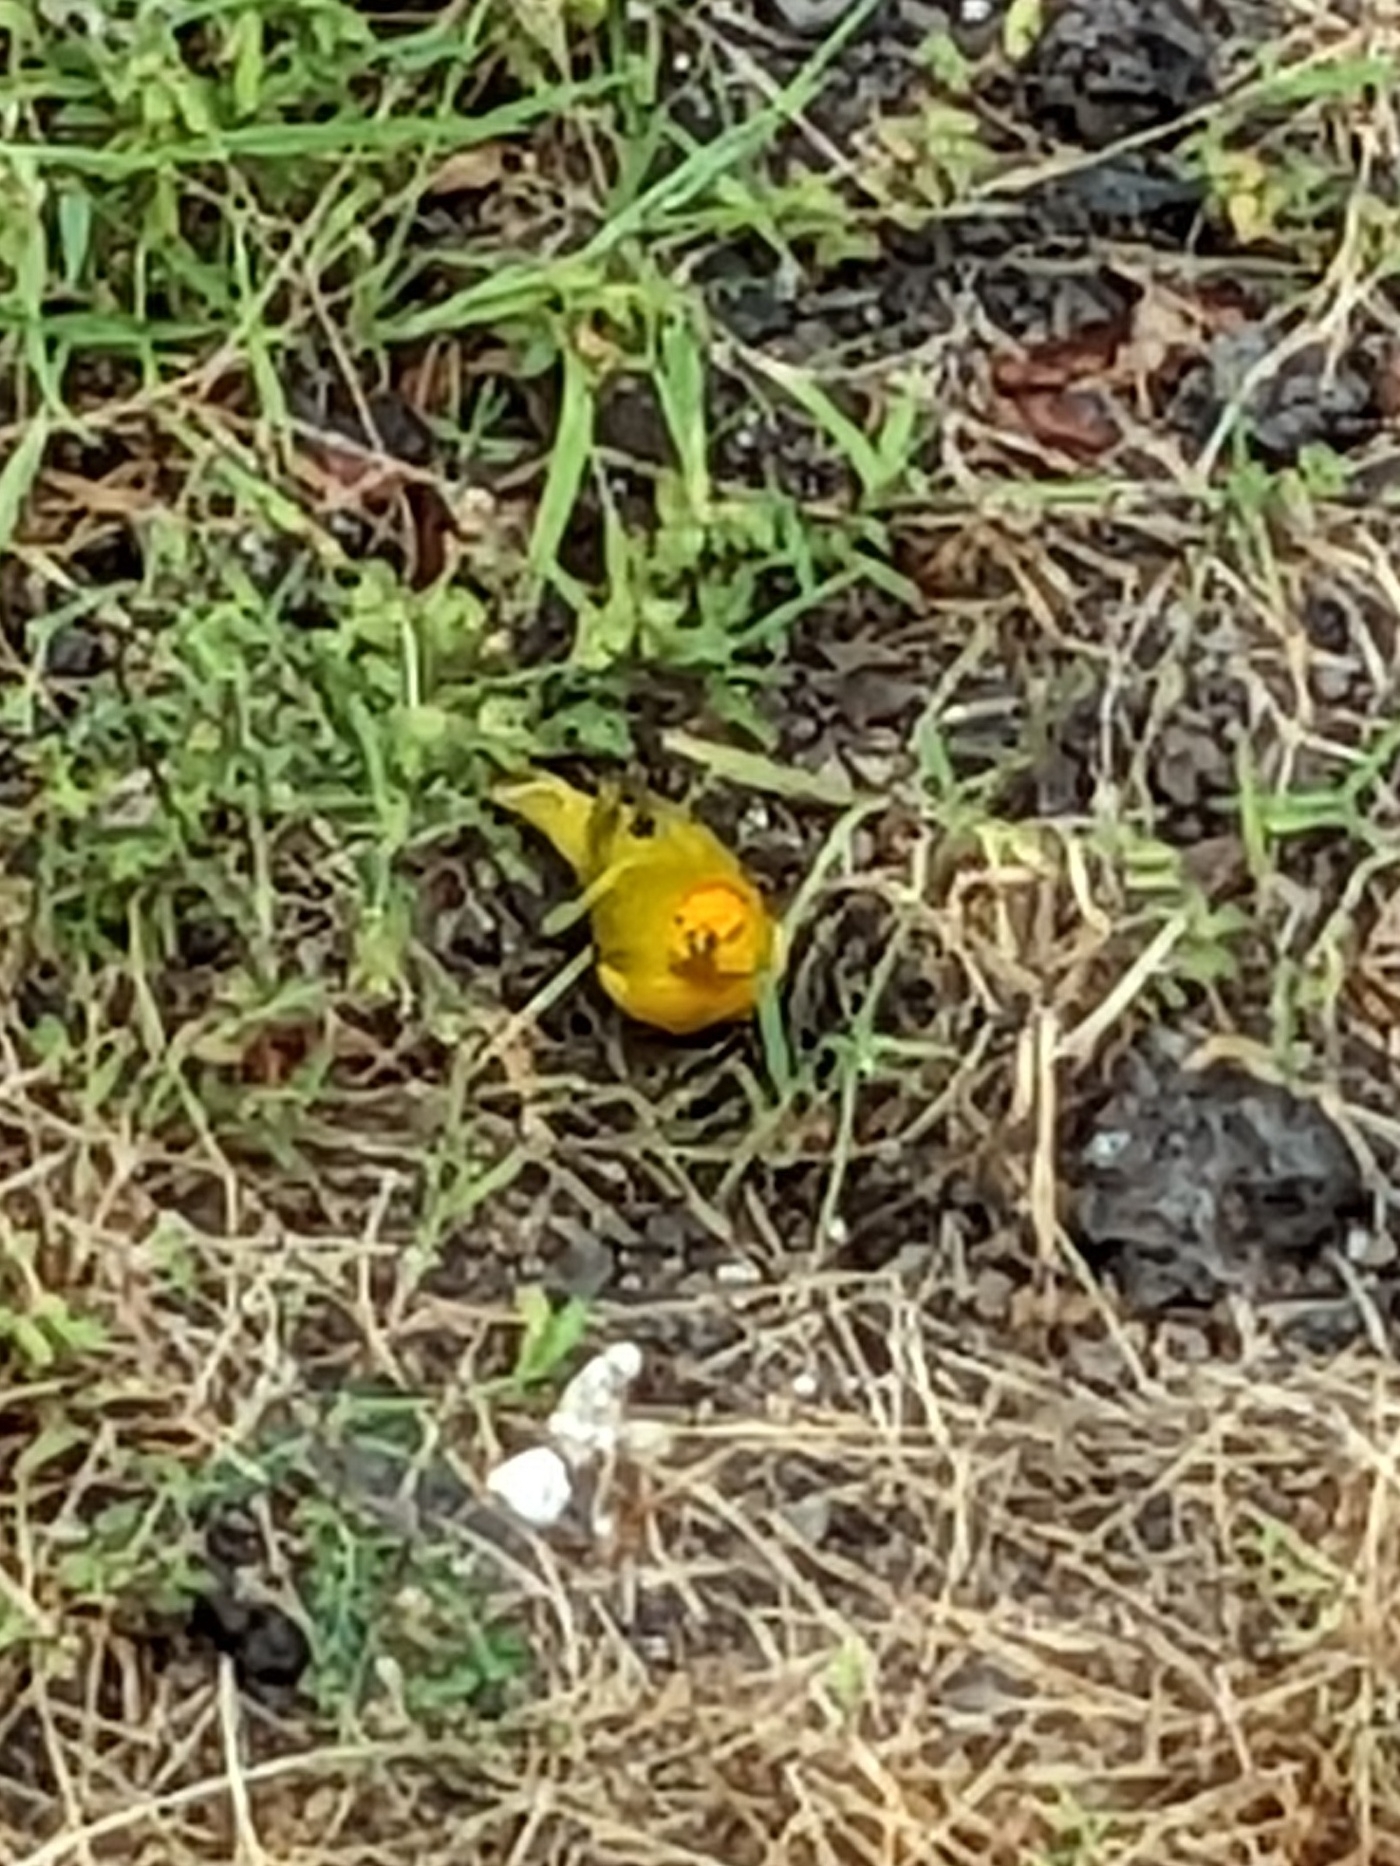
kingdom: Animalia
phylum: Chordata
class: Aves
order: Passeriformes
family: Thraupidae
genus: Sicalis
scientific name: Sicalis flaveola
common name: Saffron finch
